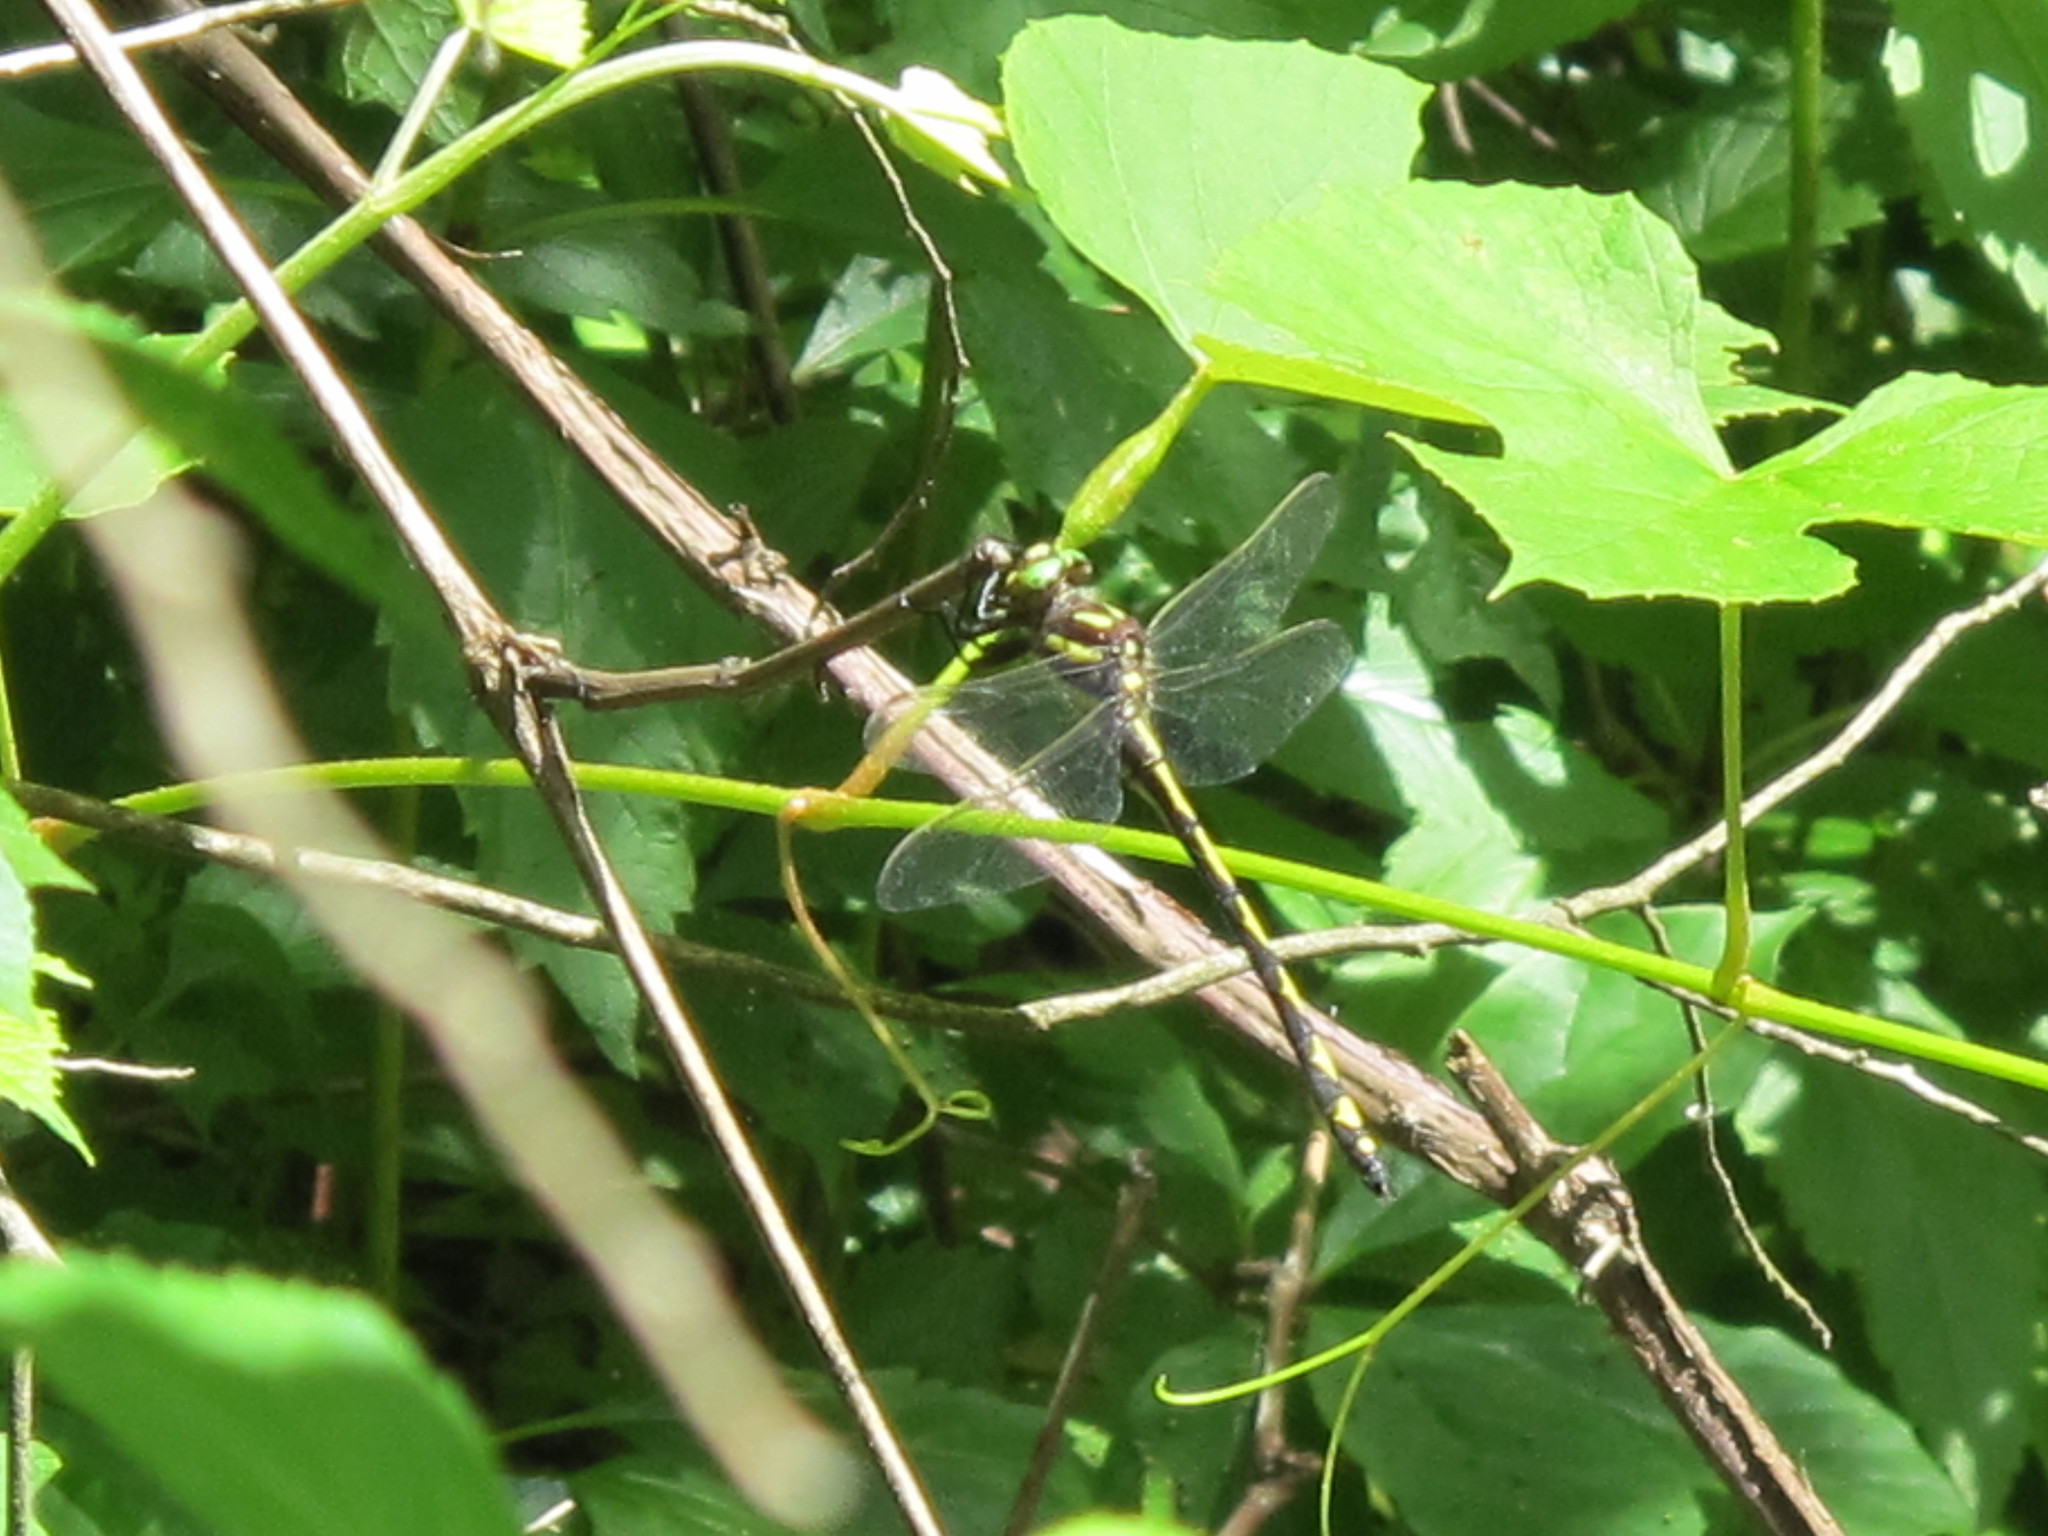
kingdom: Animalia
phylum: Arthropoda
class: Insecta
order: Odonata
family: Cordulegastridae
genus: Cordulegaster
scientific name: Cordulegaster obliqua
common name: Arrowhead spiketail
